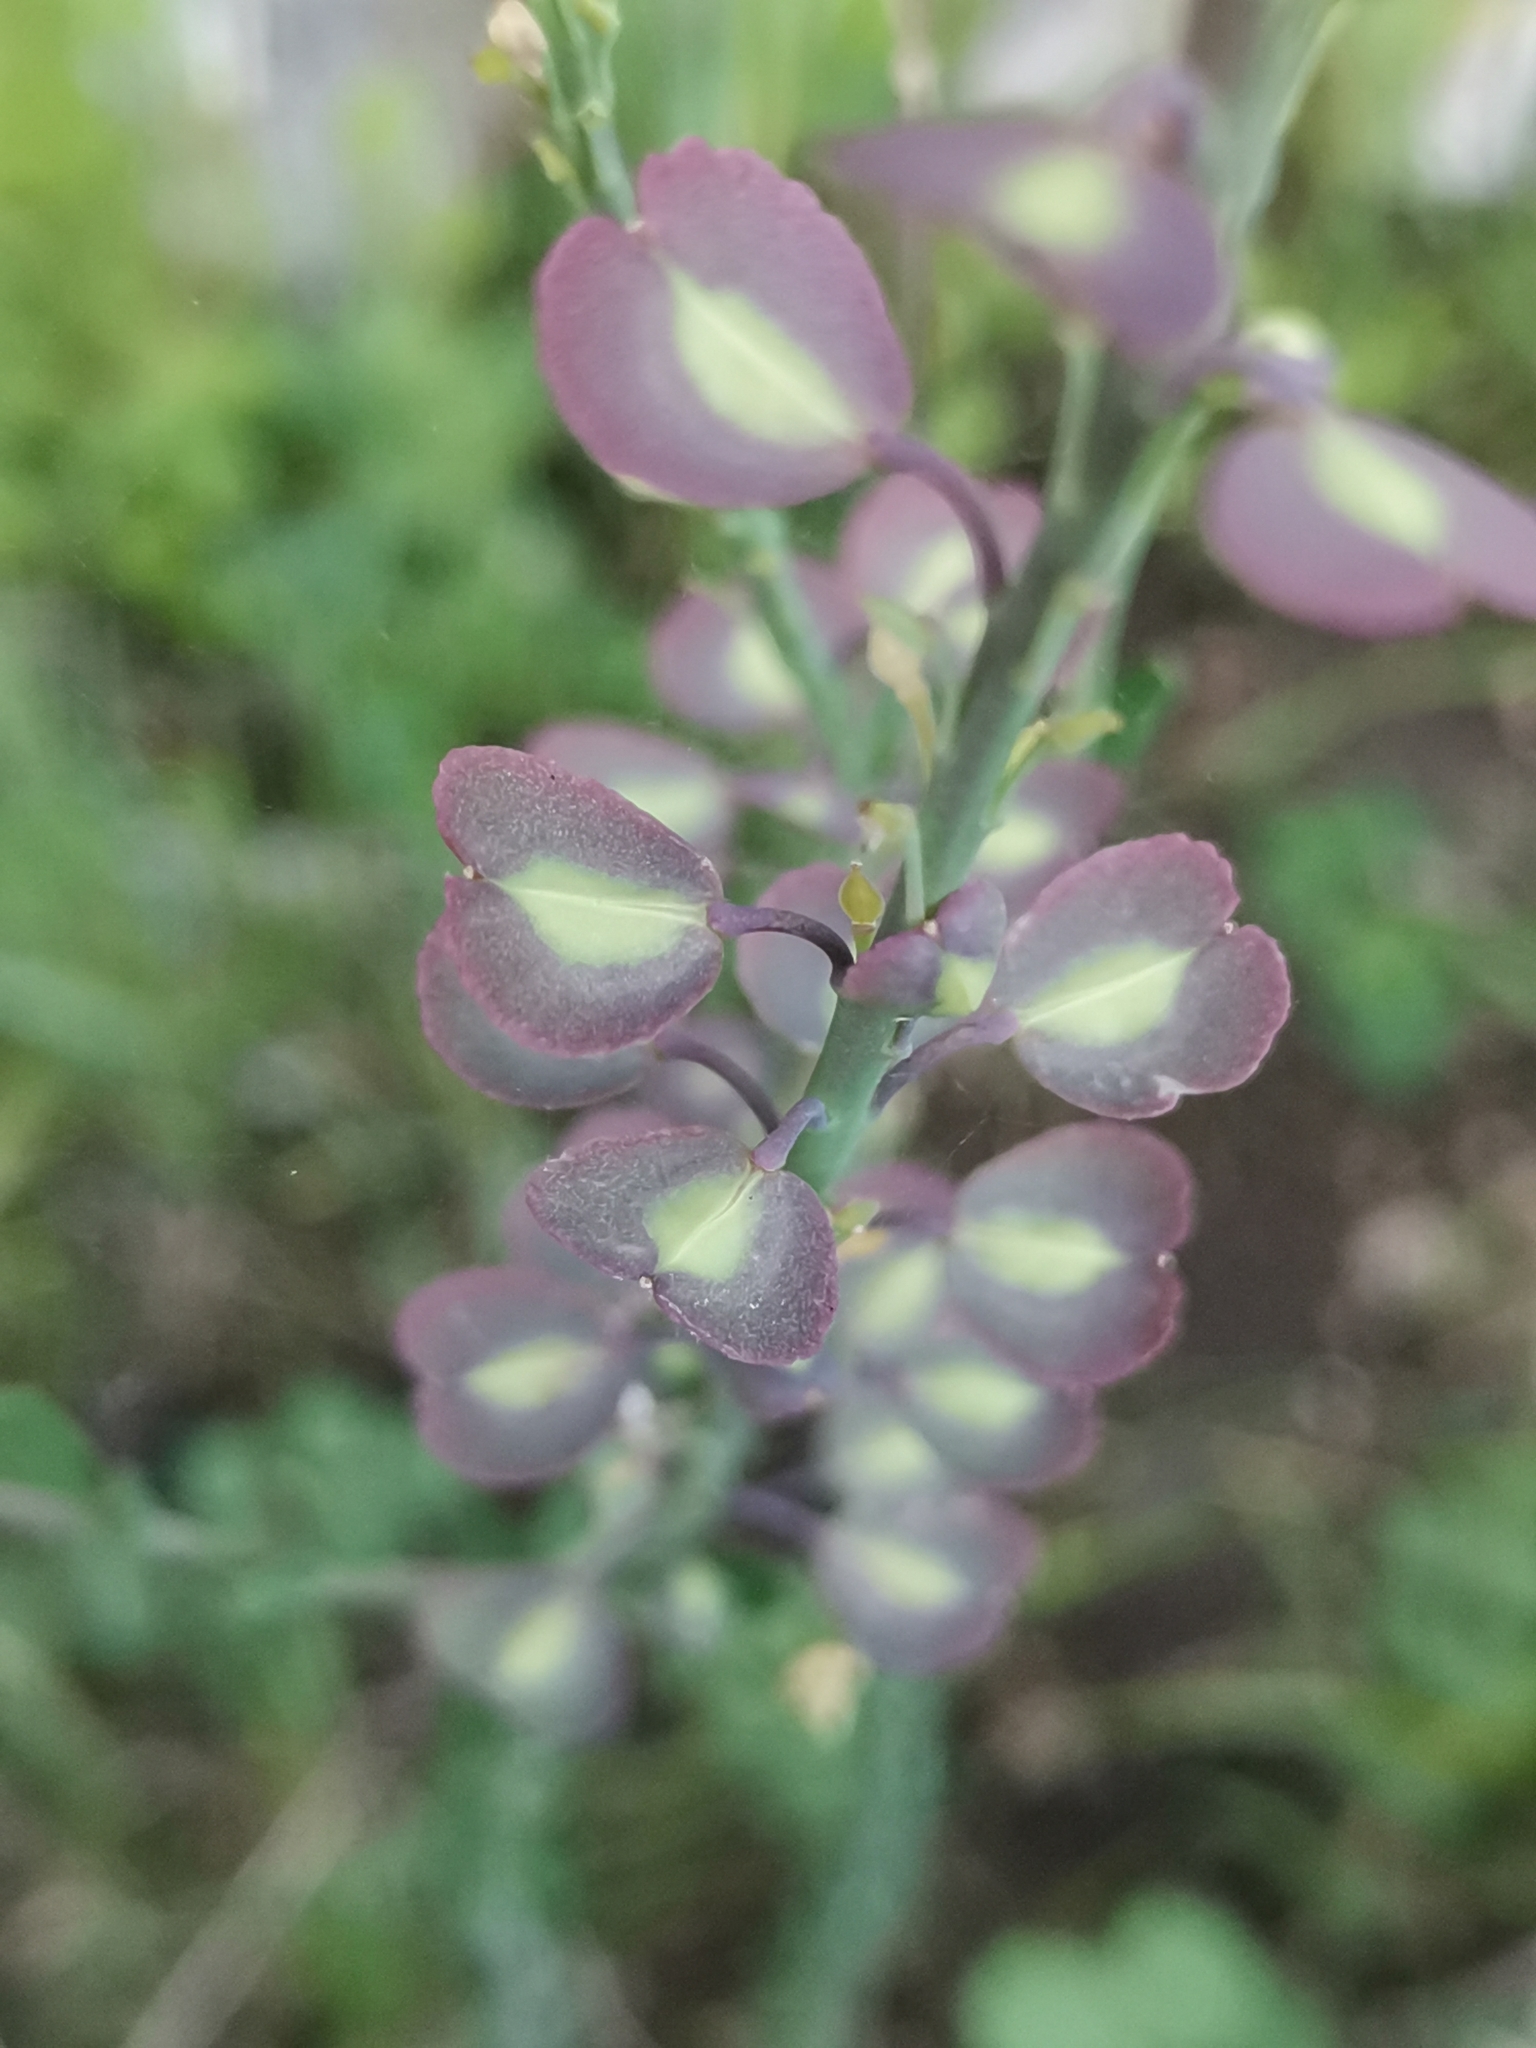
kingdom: Plantae
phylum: Tracheophyta
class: Magnoliopsida
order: Brassicales
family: Brassicaceae
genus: Aethionema
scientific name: Aethionema saxatile
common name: Burnt candytuft
